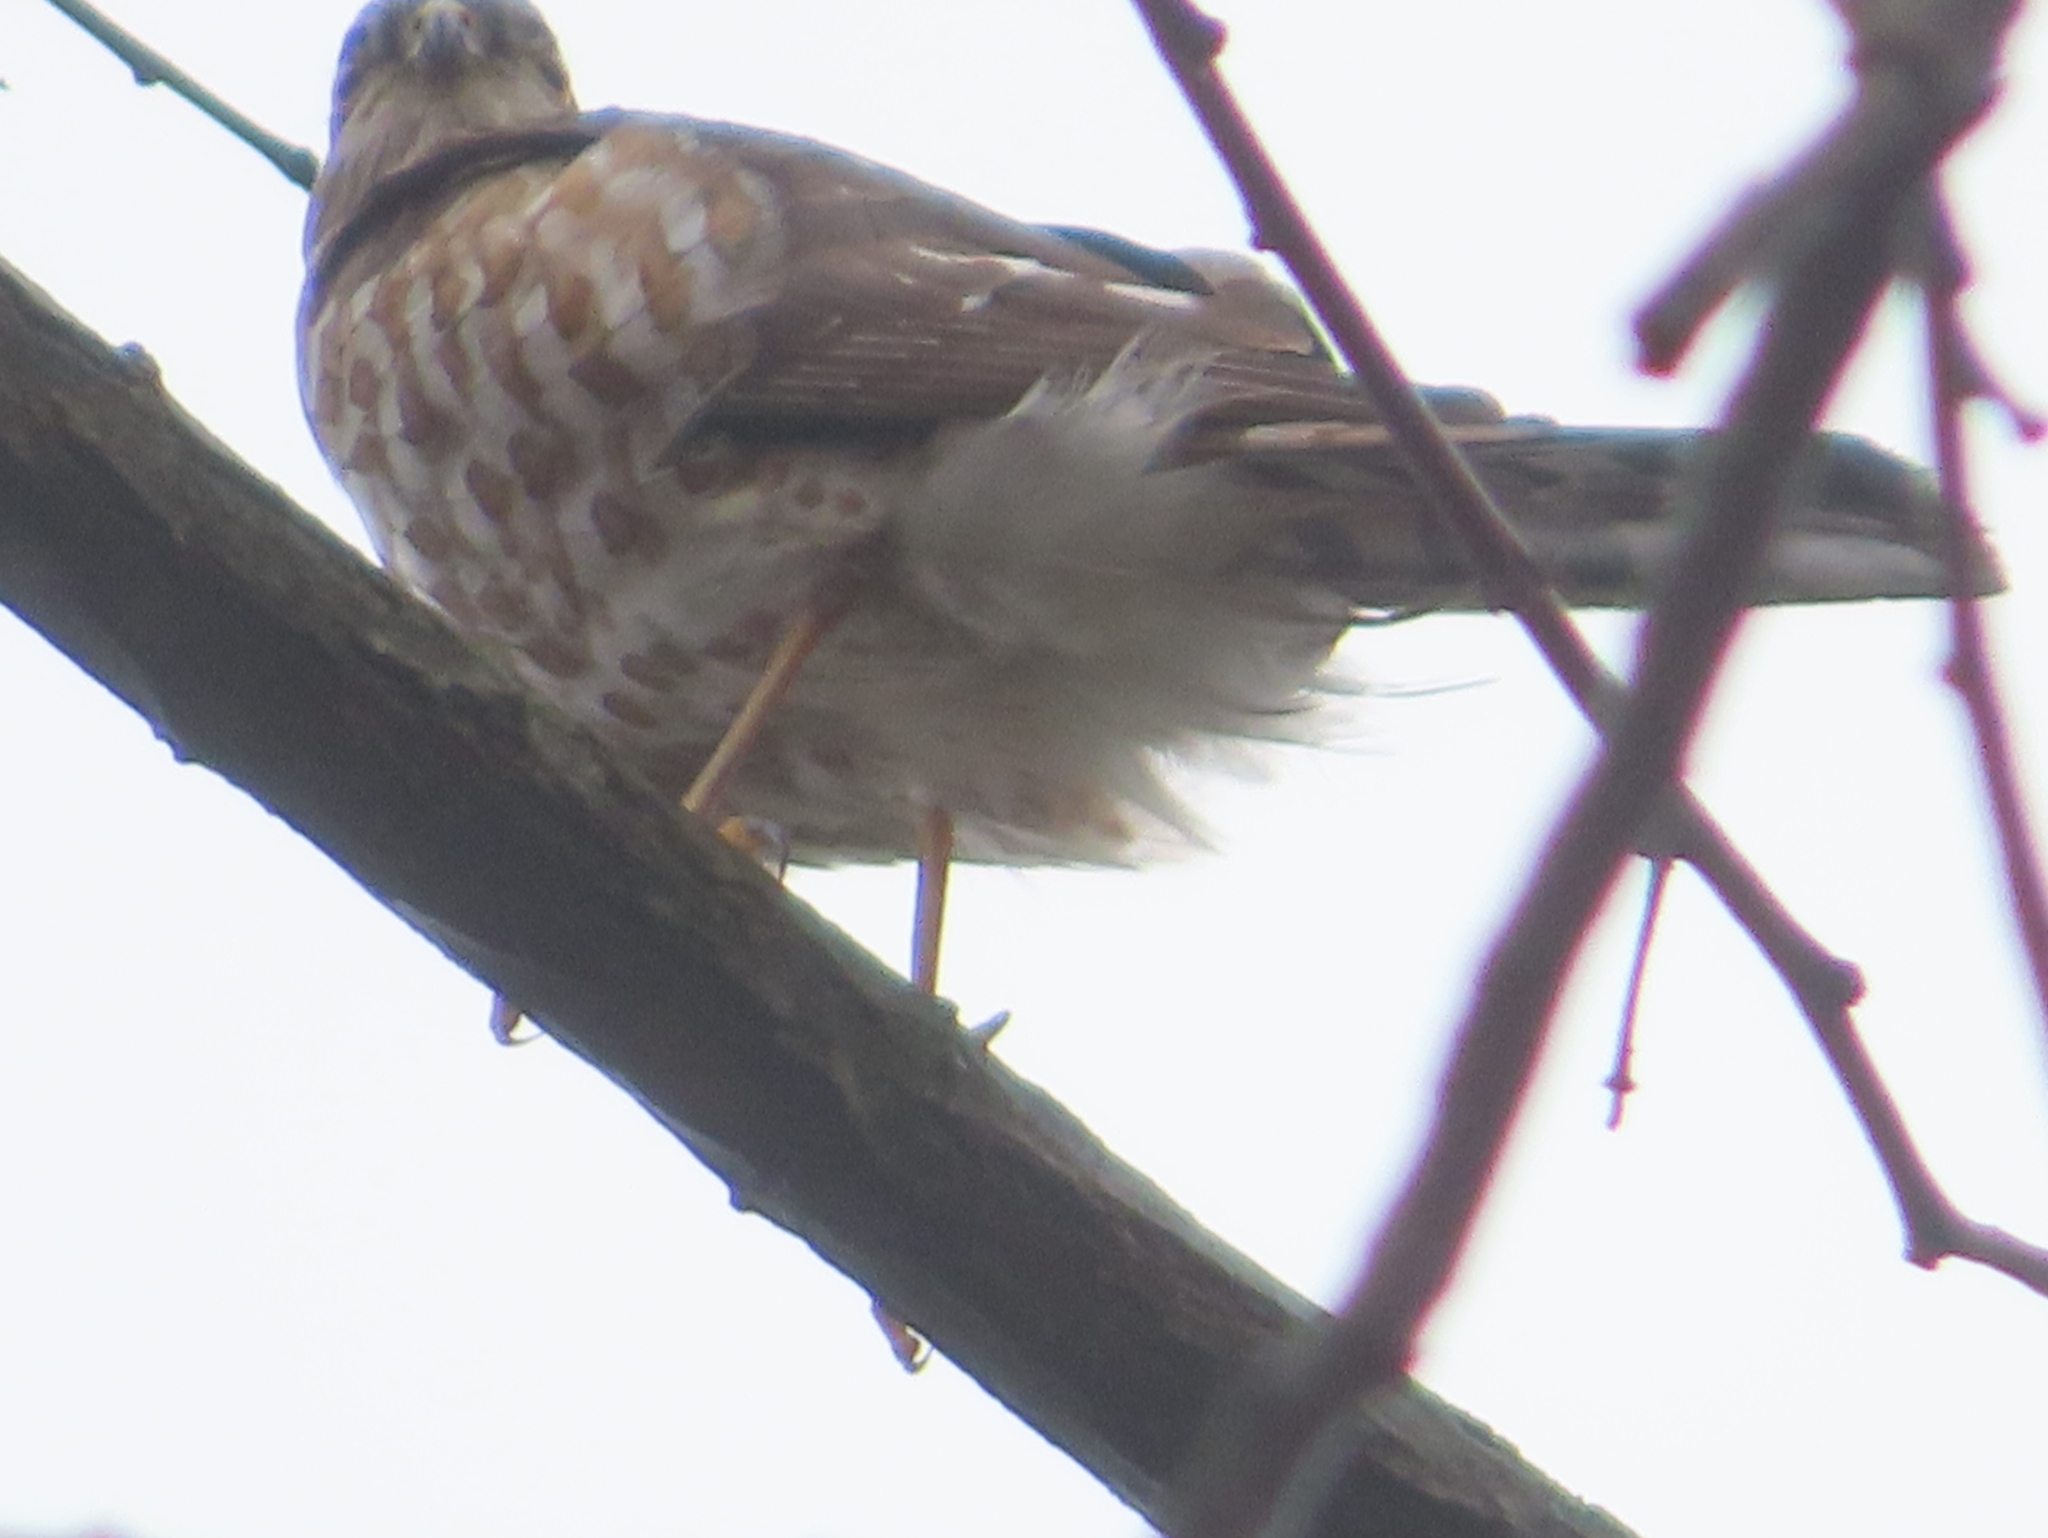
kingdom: Animalia
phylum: Chordata
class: Aves
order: Accipitriformes
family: Accipitridae
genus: Accipiter
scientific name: Accipiter striatus
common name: Sharp-shinned hawk
